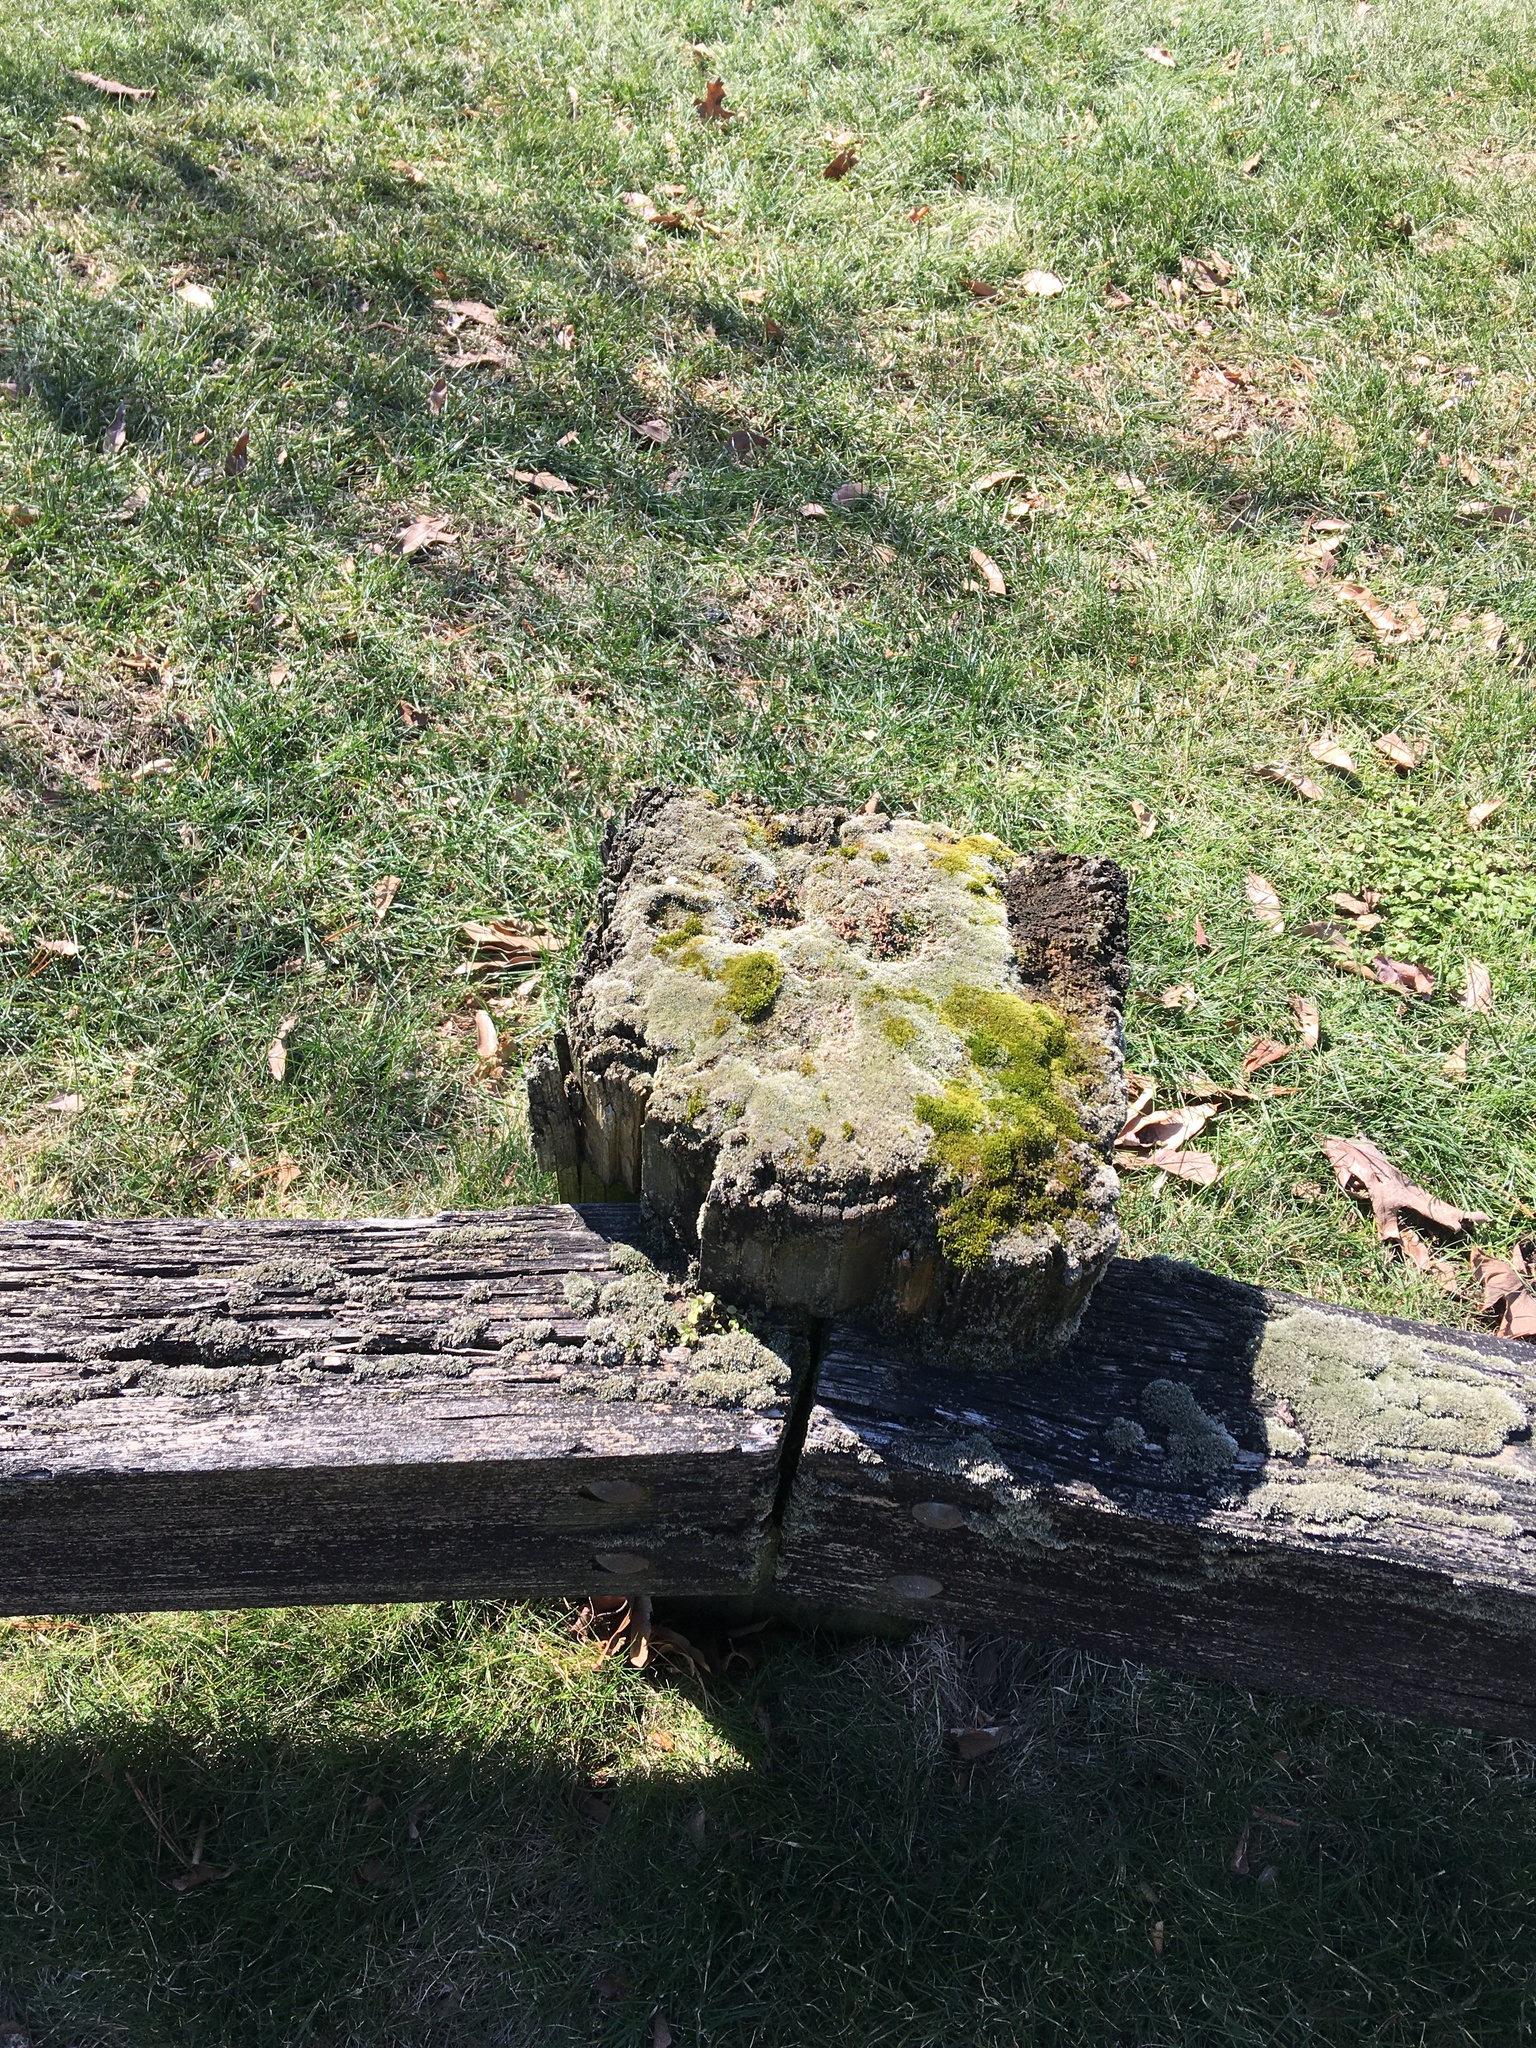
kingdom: Plantae
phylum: Bryophyta
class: Bryopsida
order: Bryales
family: Bryaceae
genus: Bryum
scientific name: Bryum argenteum
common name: Silver-moss
